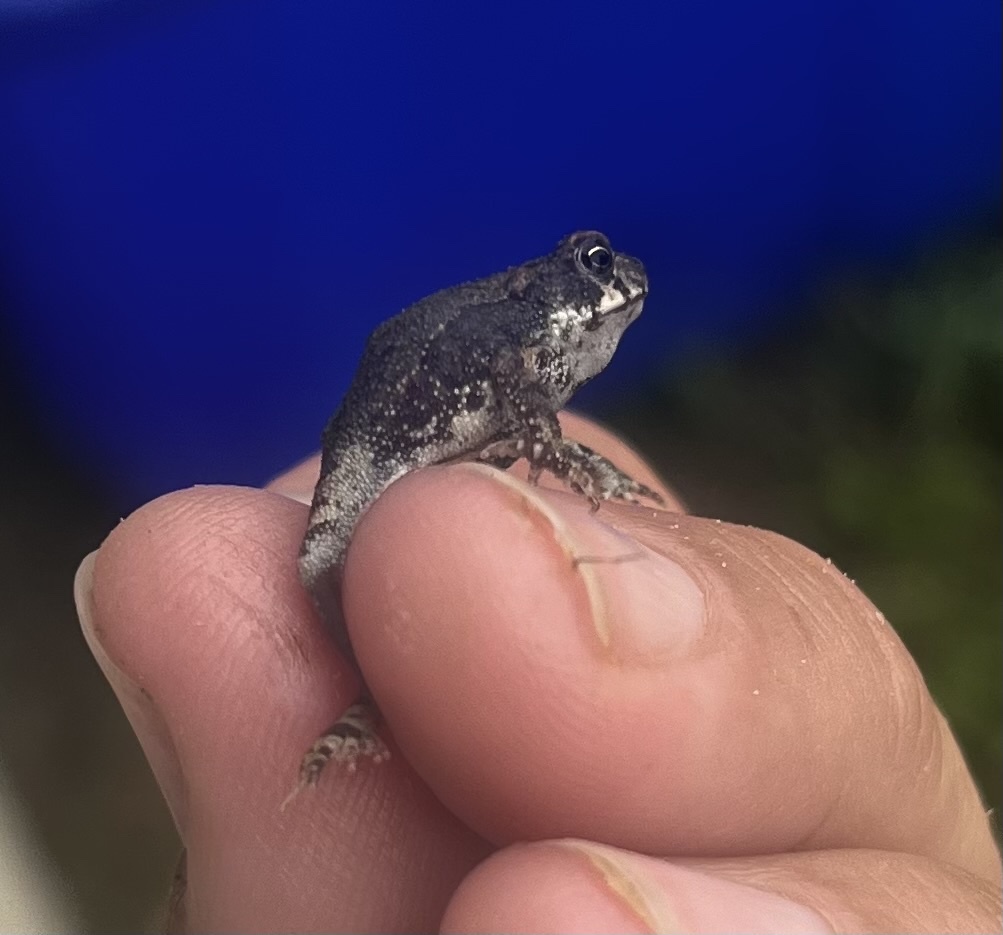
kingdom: Animalia
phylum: Chordata
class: Amphibia
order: Anura
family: Bufonidae
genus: Incilius
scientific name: Incilius nebulifer
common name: Gulf coast toad
